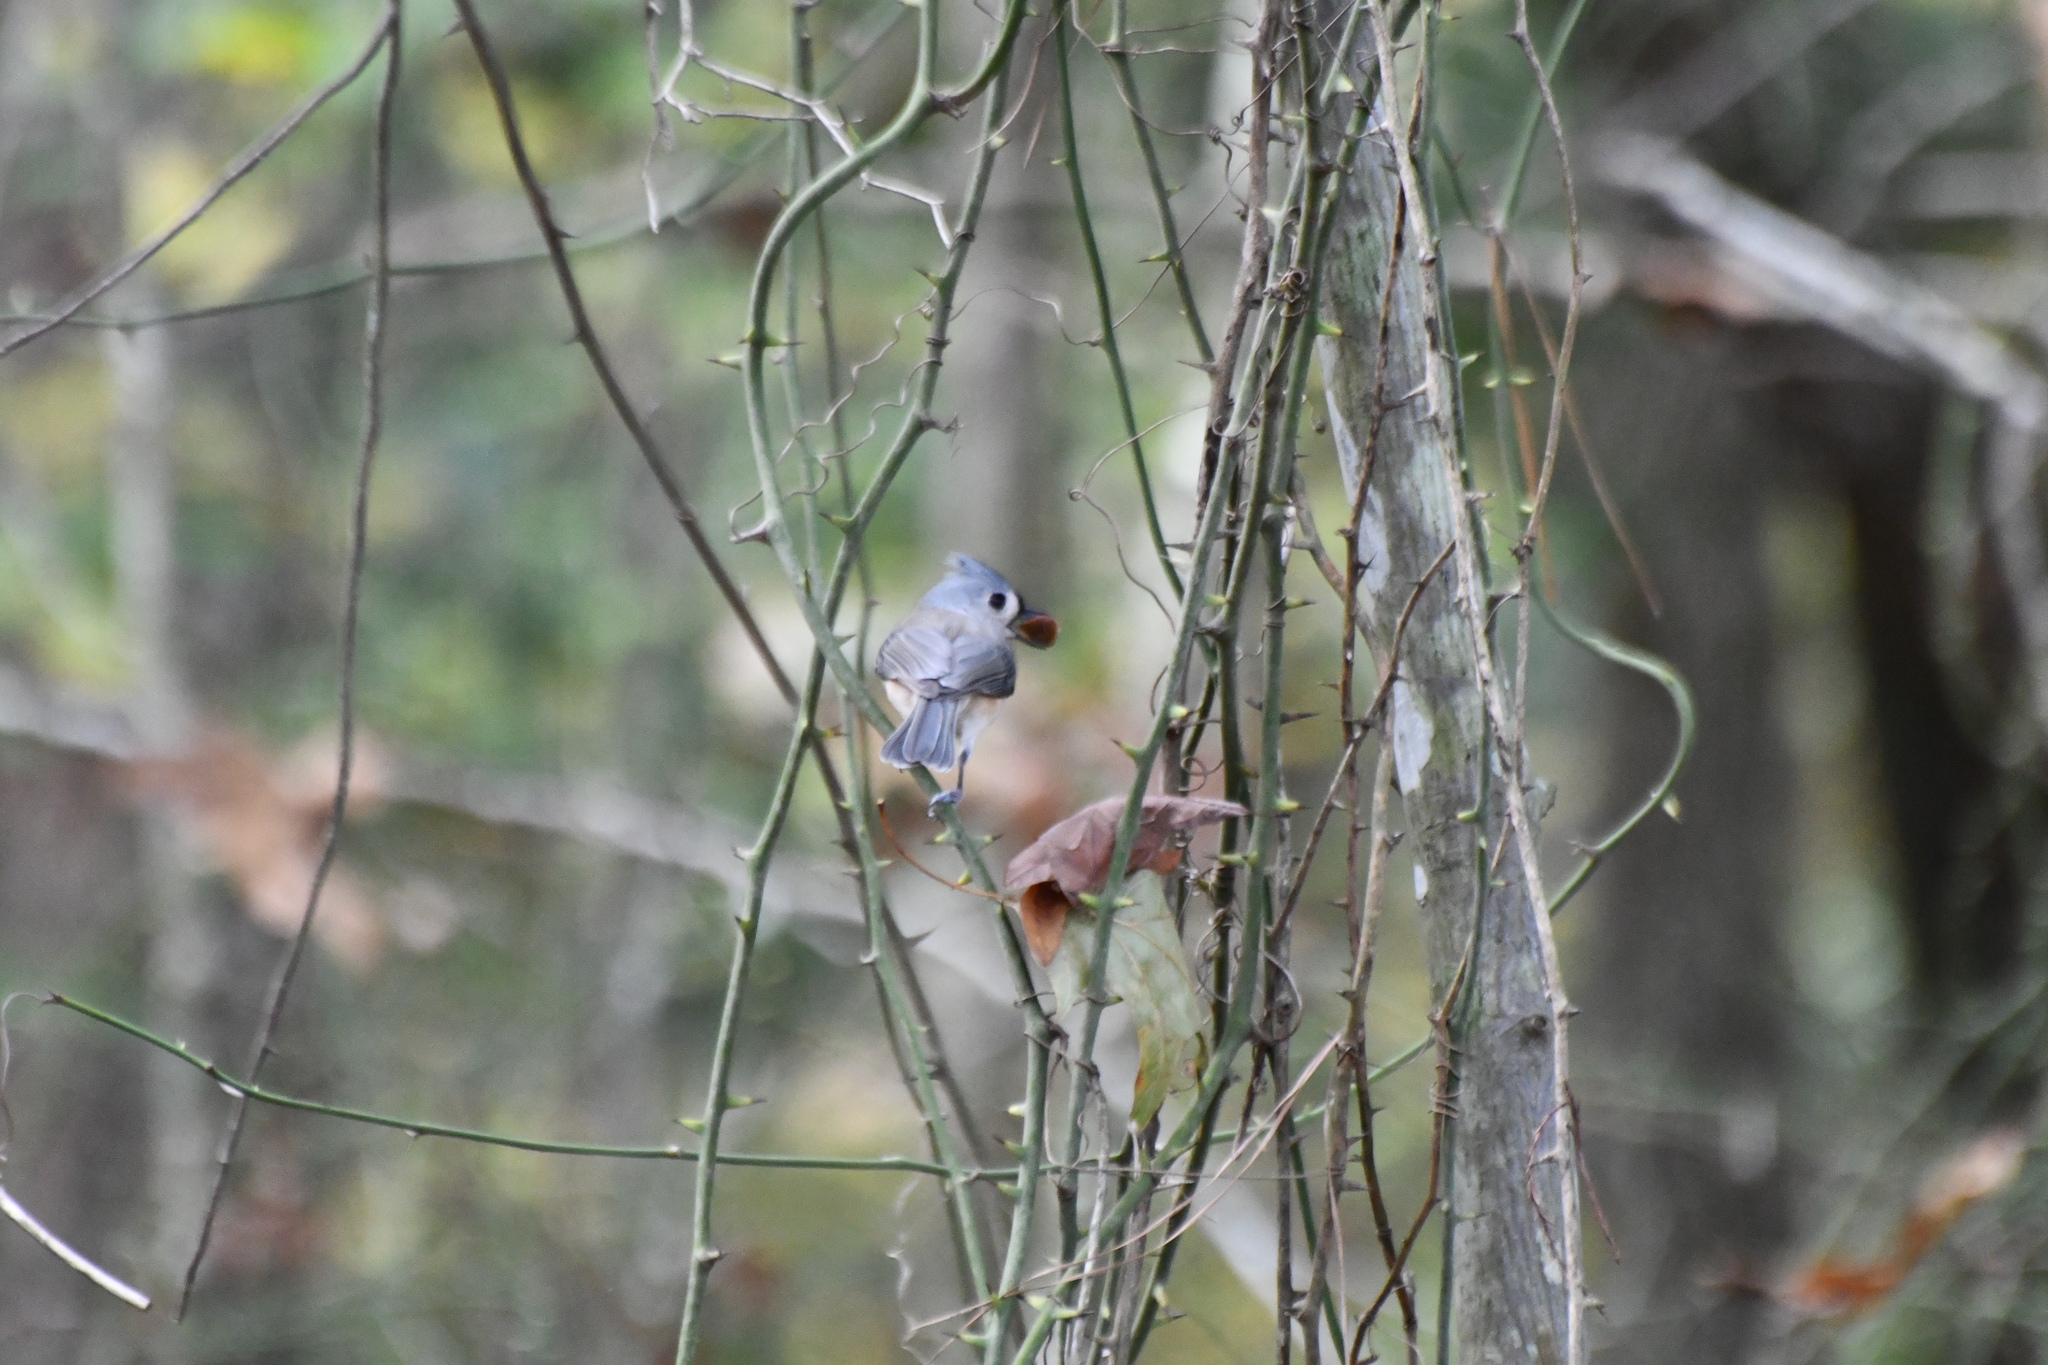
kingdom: Animalia
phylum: Chordata
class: Aves
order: Passeriformes
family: Paridae
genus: Baeolophus
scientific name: Baeolophus bicolor
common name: Tufted titmouse
